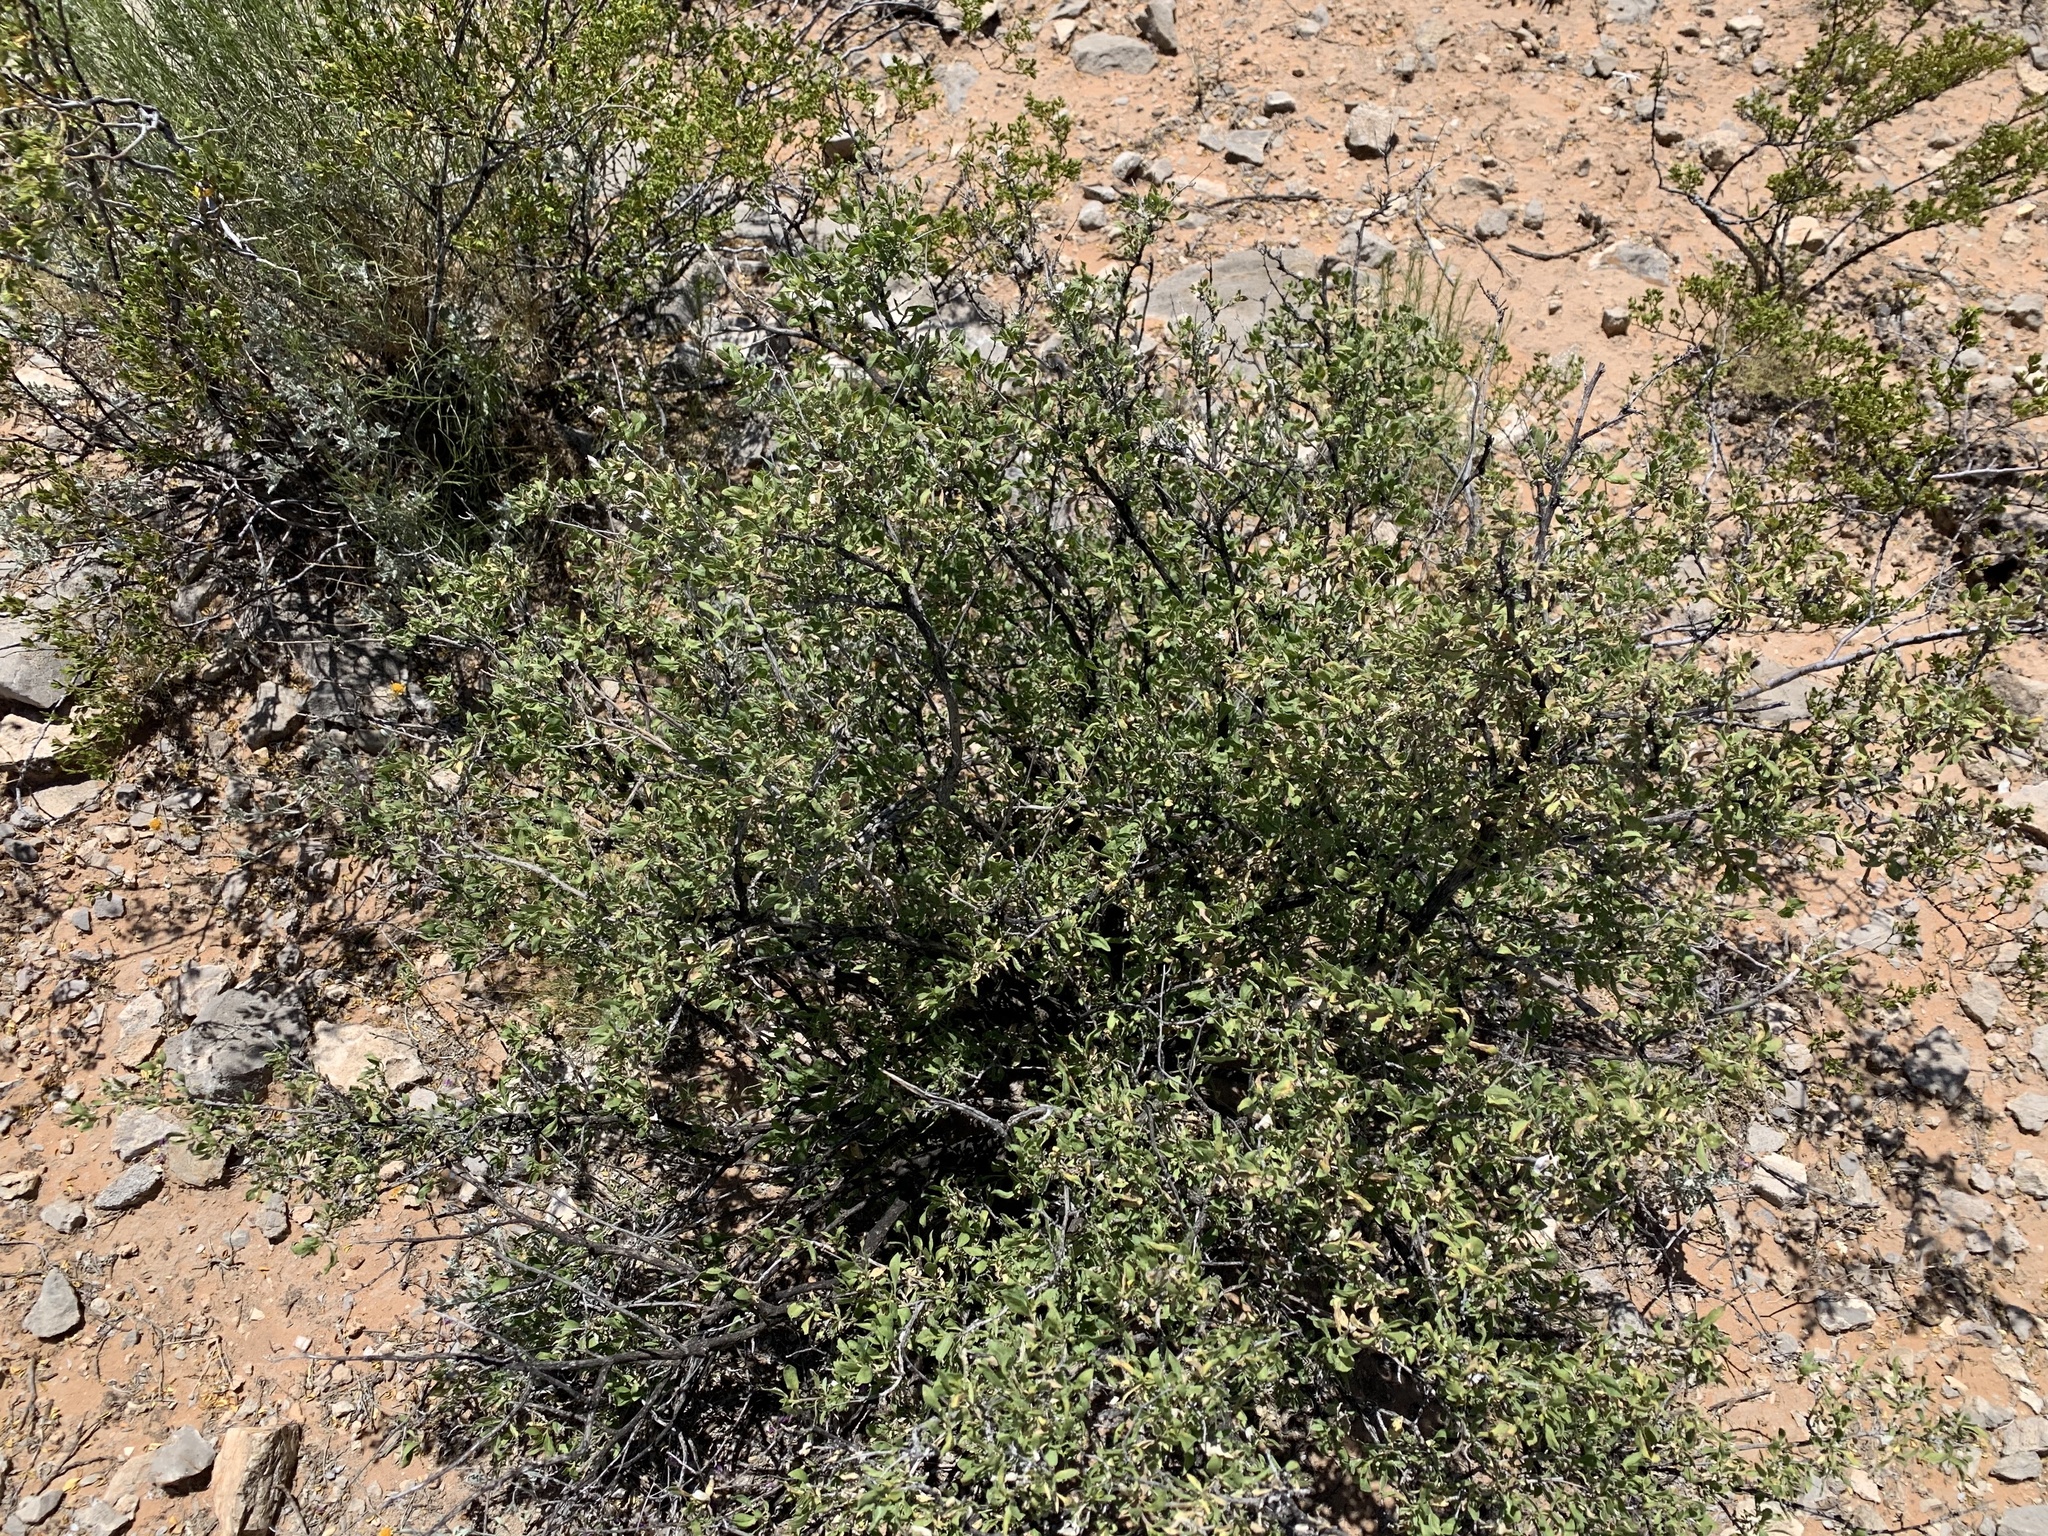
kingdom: Plantae
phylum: Tracheophyta
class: Magnoliopsida
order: Asterales
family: Asteraceae
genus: Flourensia
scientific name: Flourensia cernua
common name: Varnishbush
